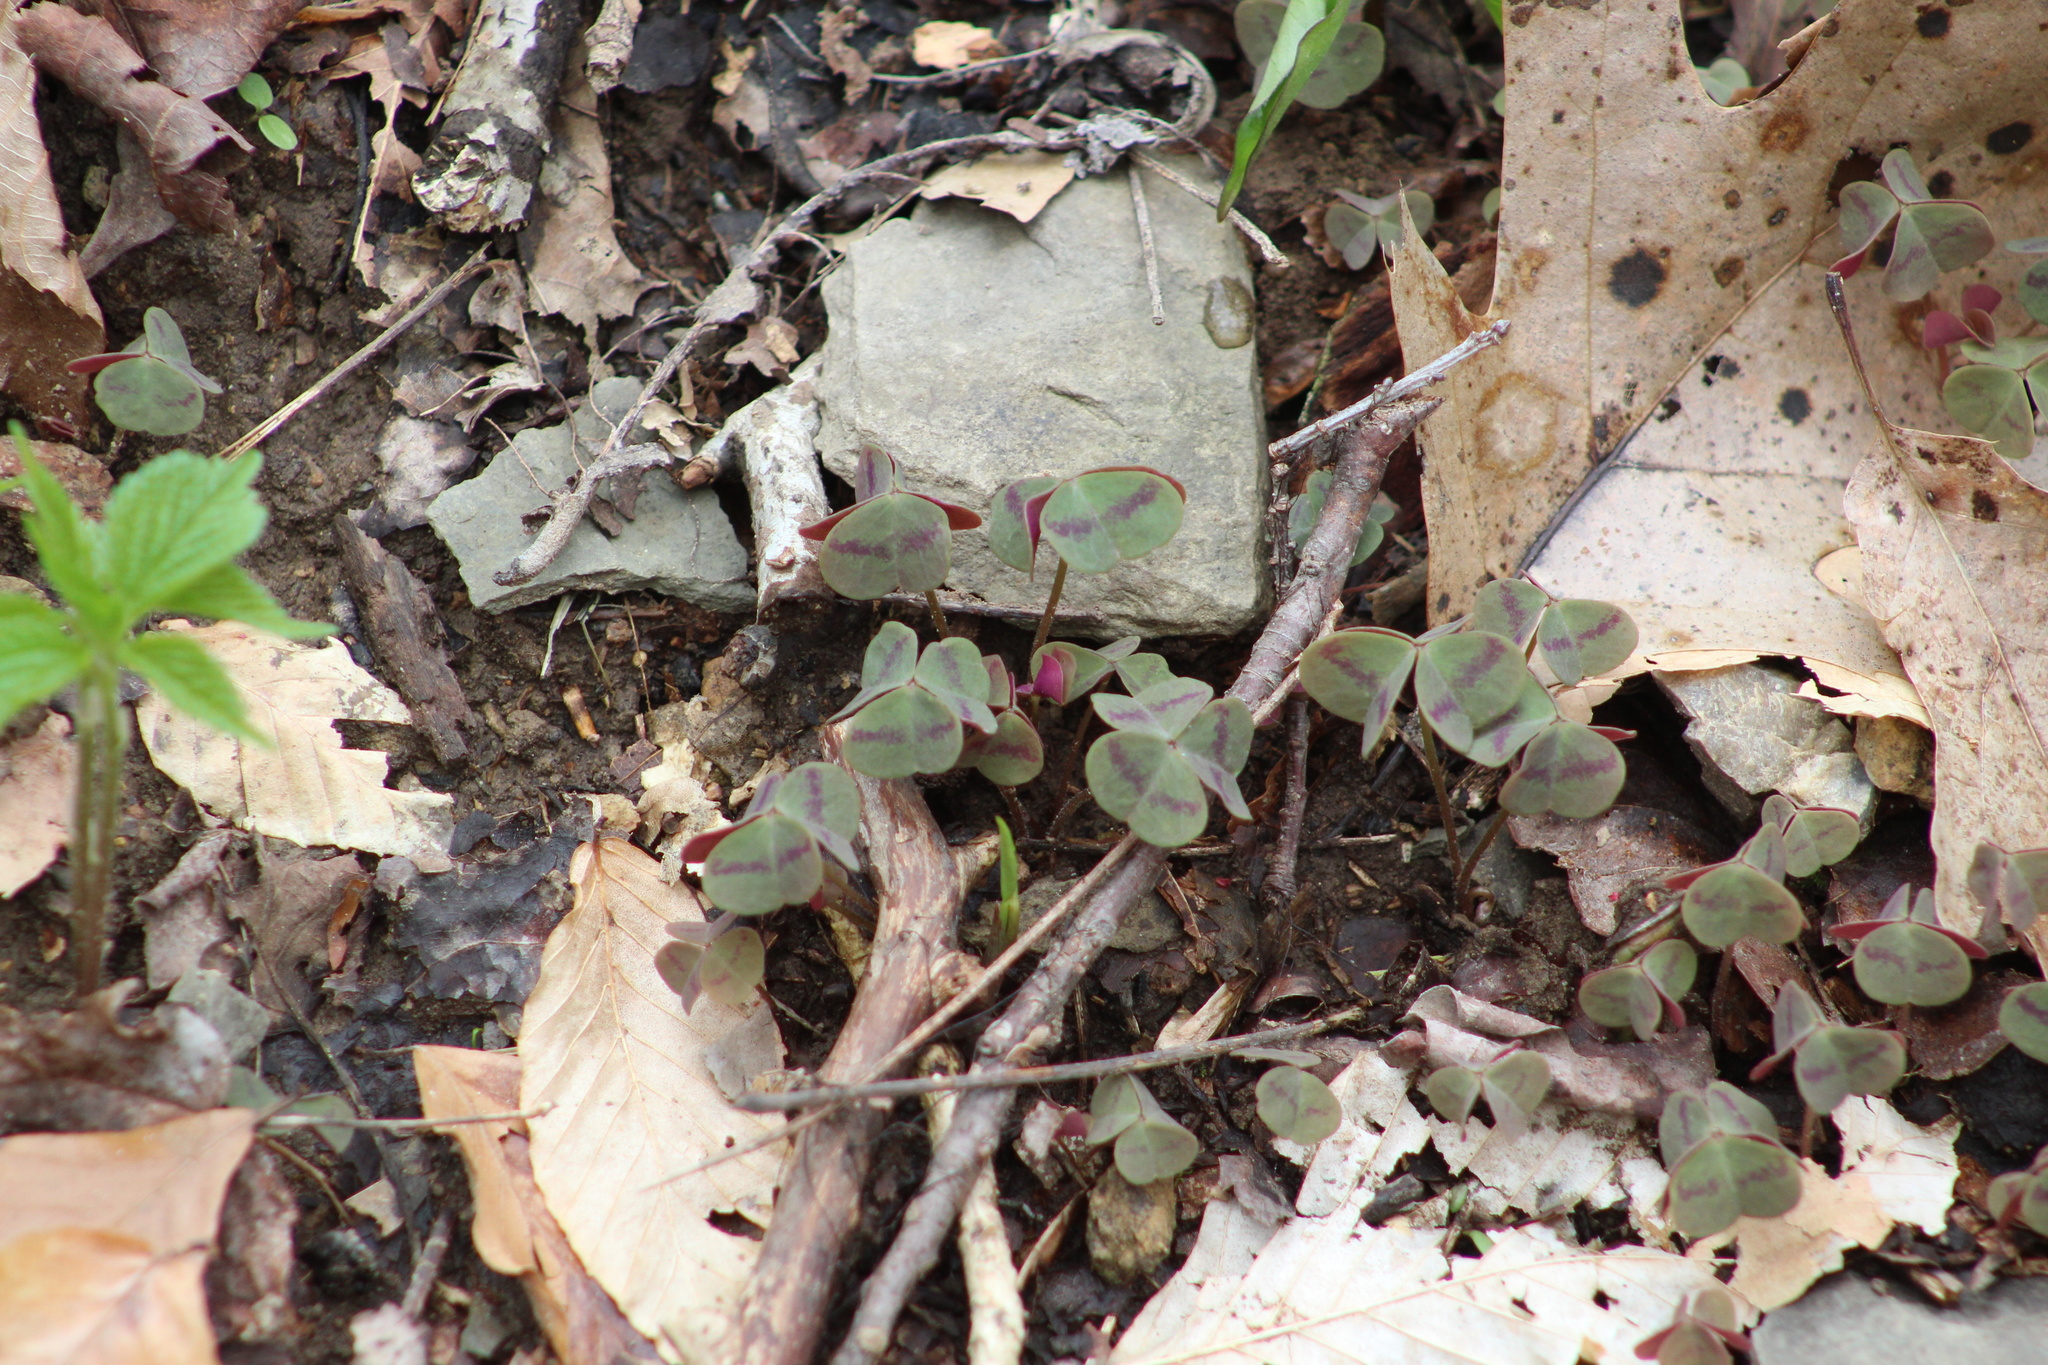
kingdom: Plantae
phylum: Tracheophyta
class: Magnoliopsida
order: Oxalidales
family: Oxalidaceae
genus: Oxalis
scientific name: Oxalis violacea
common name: Violet wood-sorrel
